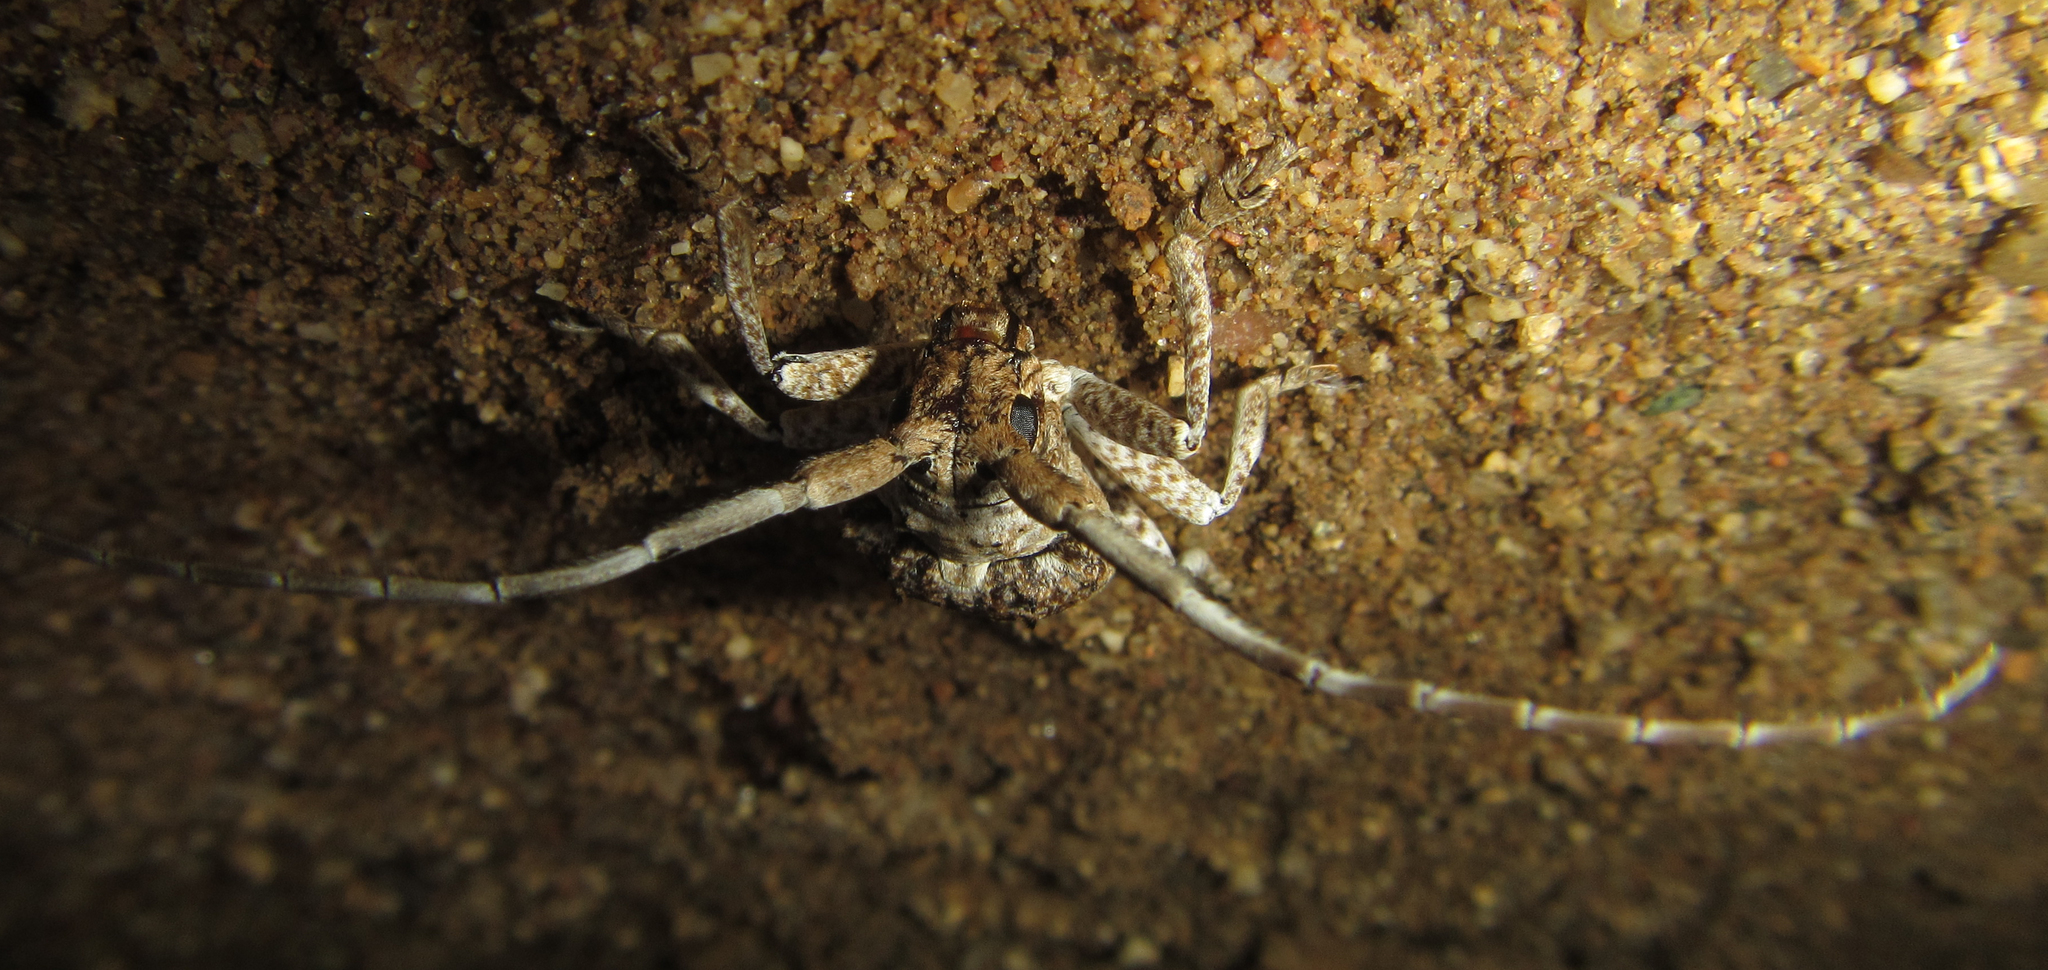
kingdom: Animalia
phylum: Arthropoda
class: Insecta
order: Coleoptera
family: Cerambycidae
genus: Crossotus
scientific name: Crossotus stypticus
